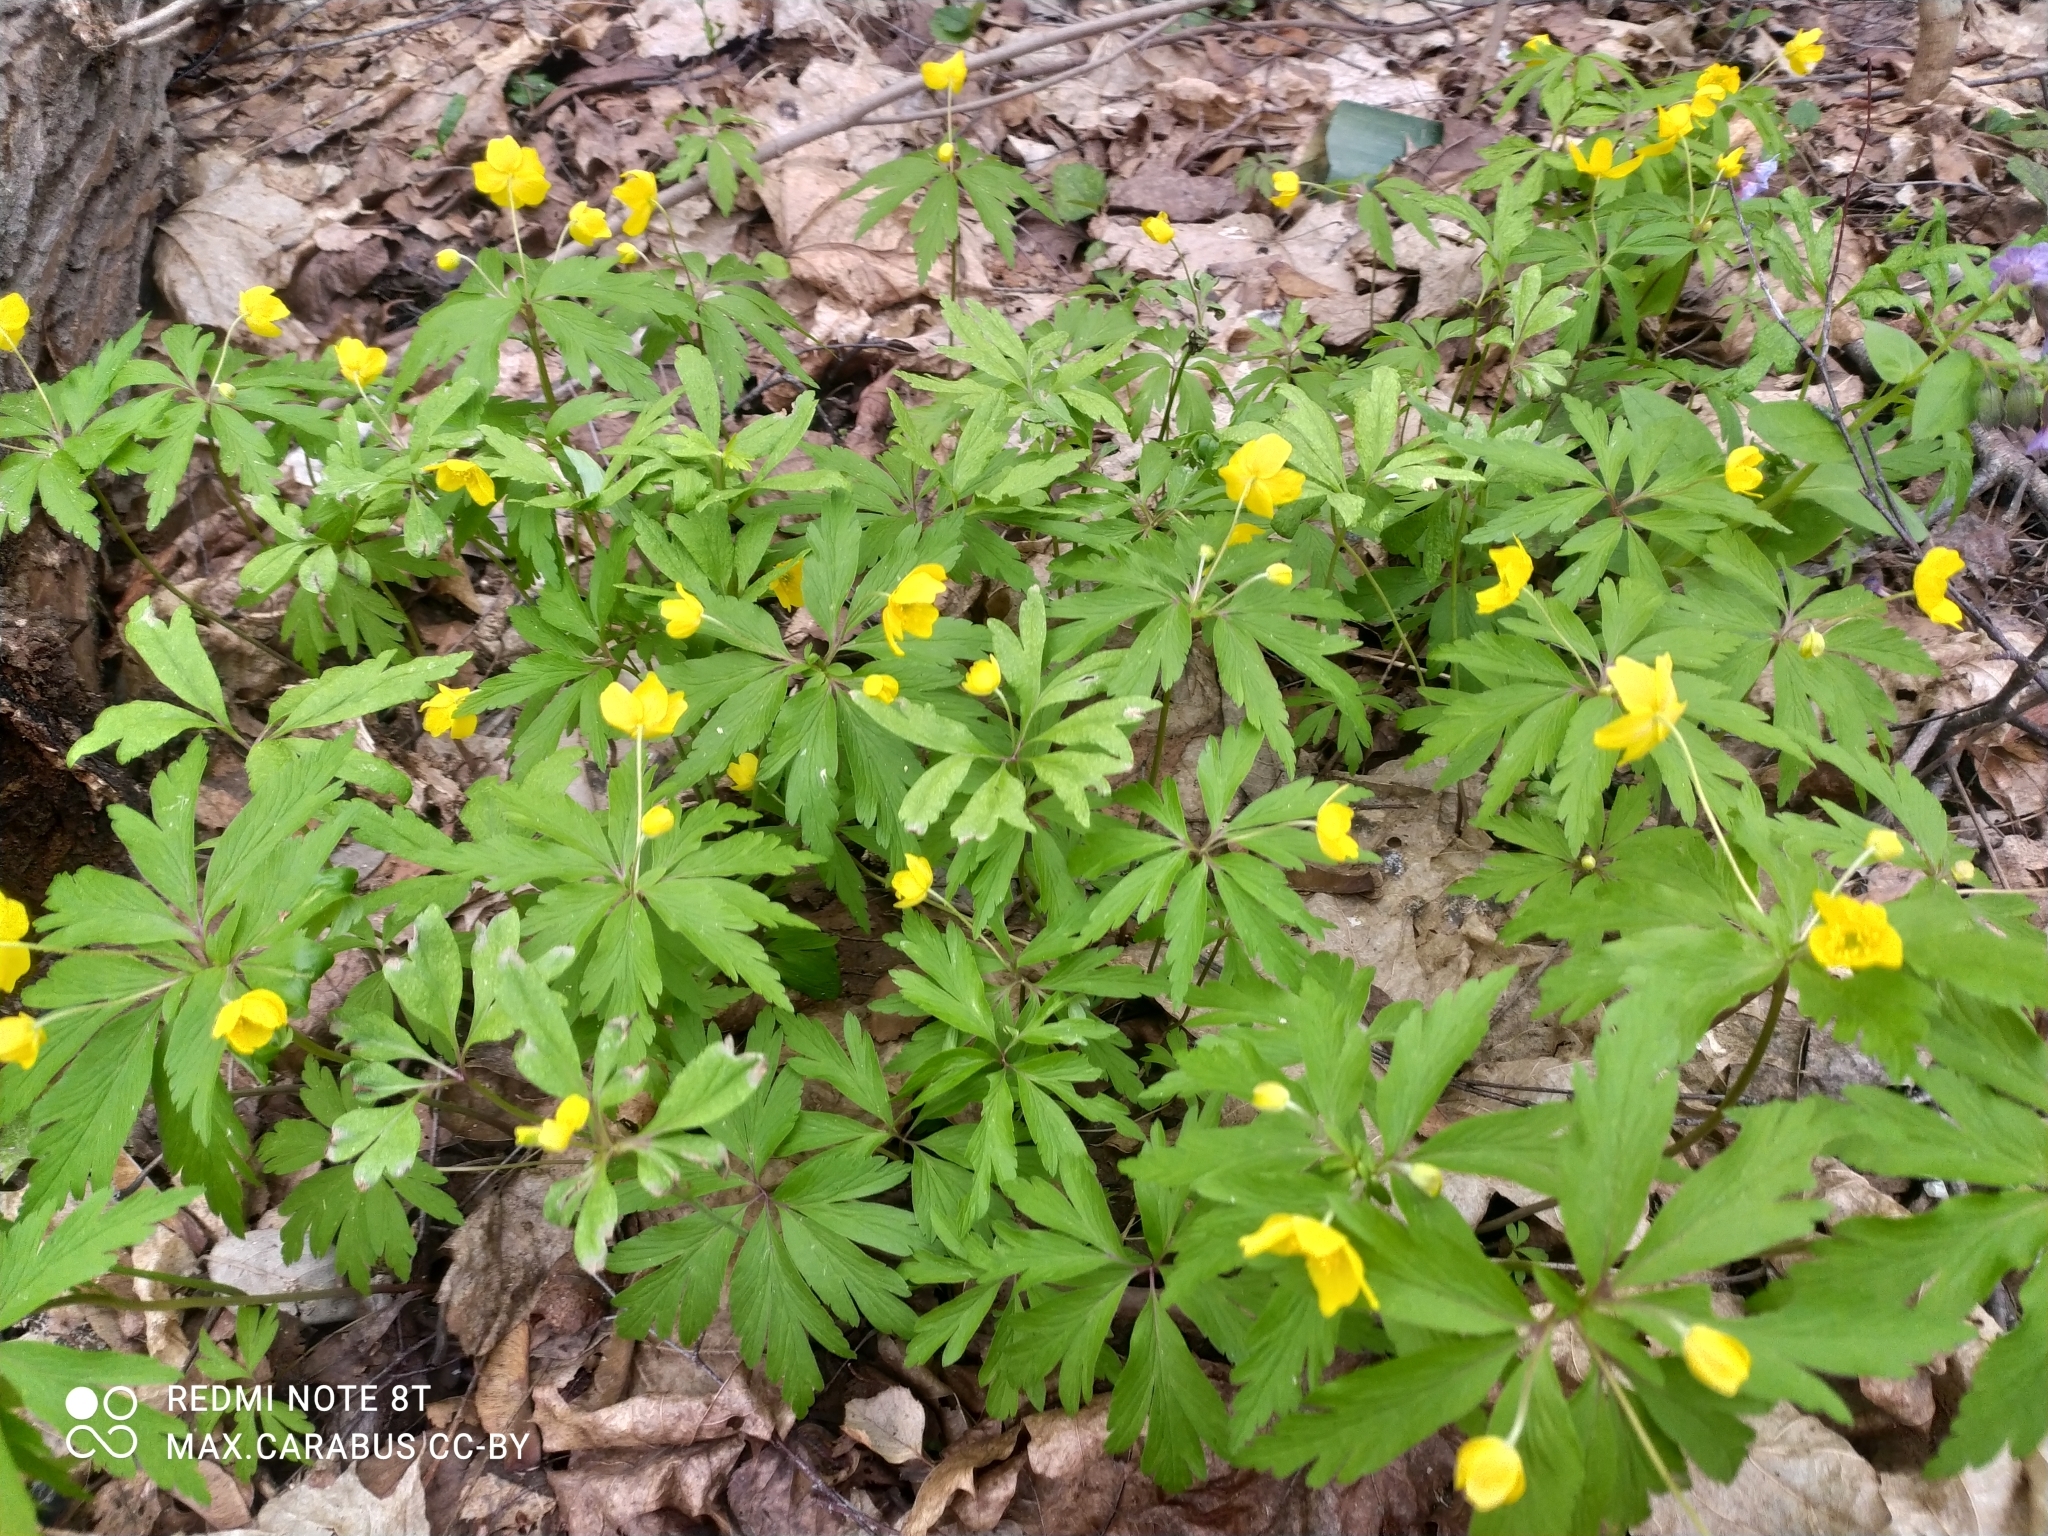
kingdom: Plantae
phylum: Tracheophyta
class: Magnoliopsida
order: Ranunculales
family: Ranunculaceae
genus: Anemone
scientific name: Anemone ranunculoides
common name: Yellow anemone
